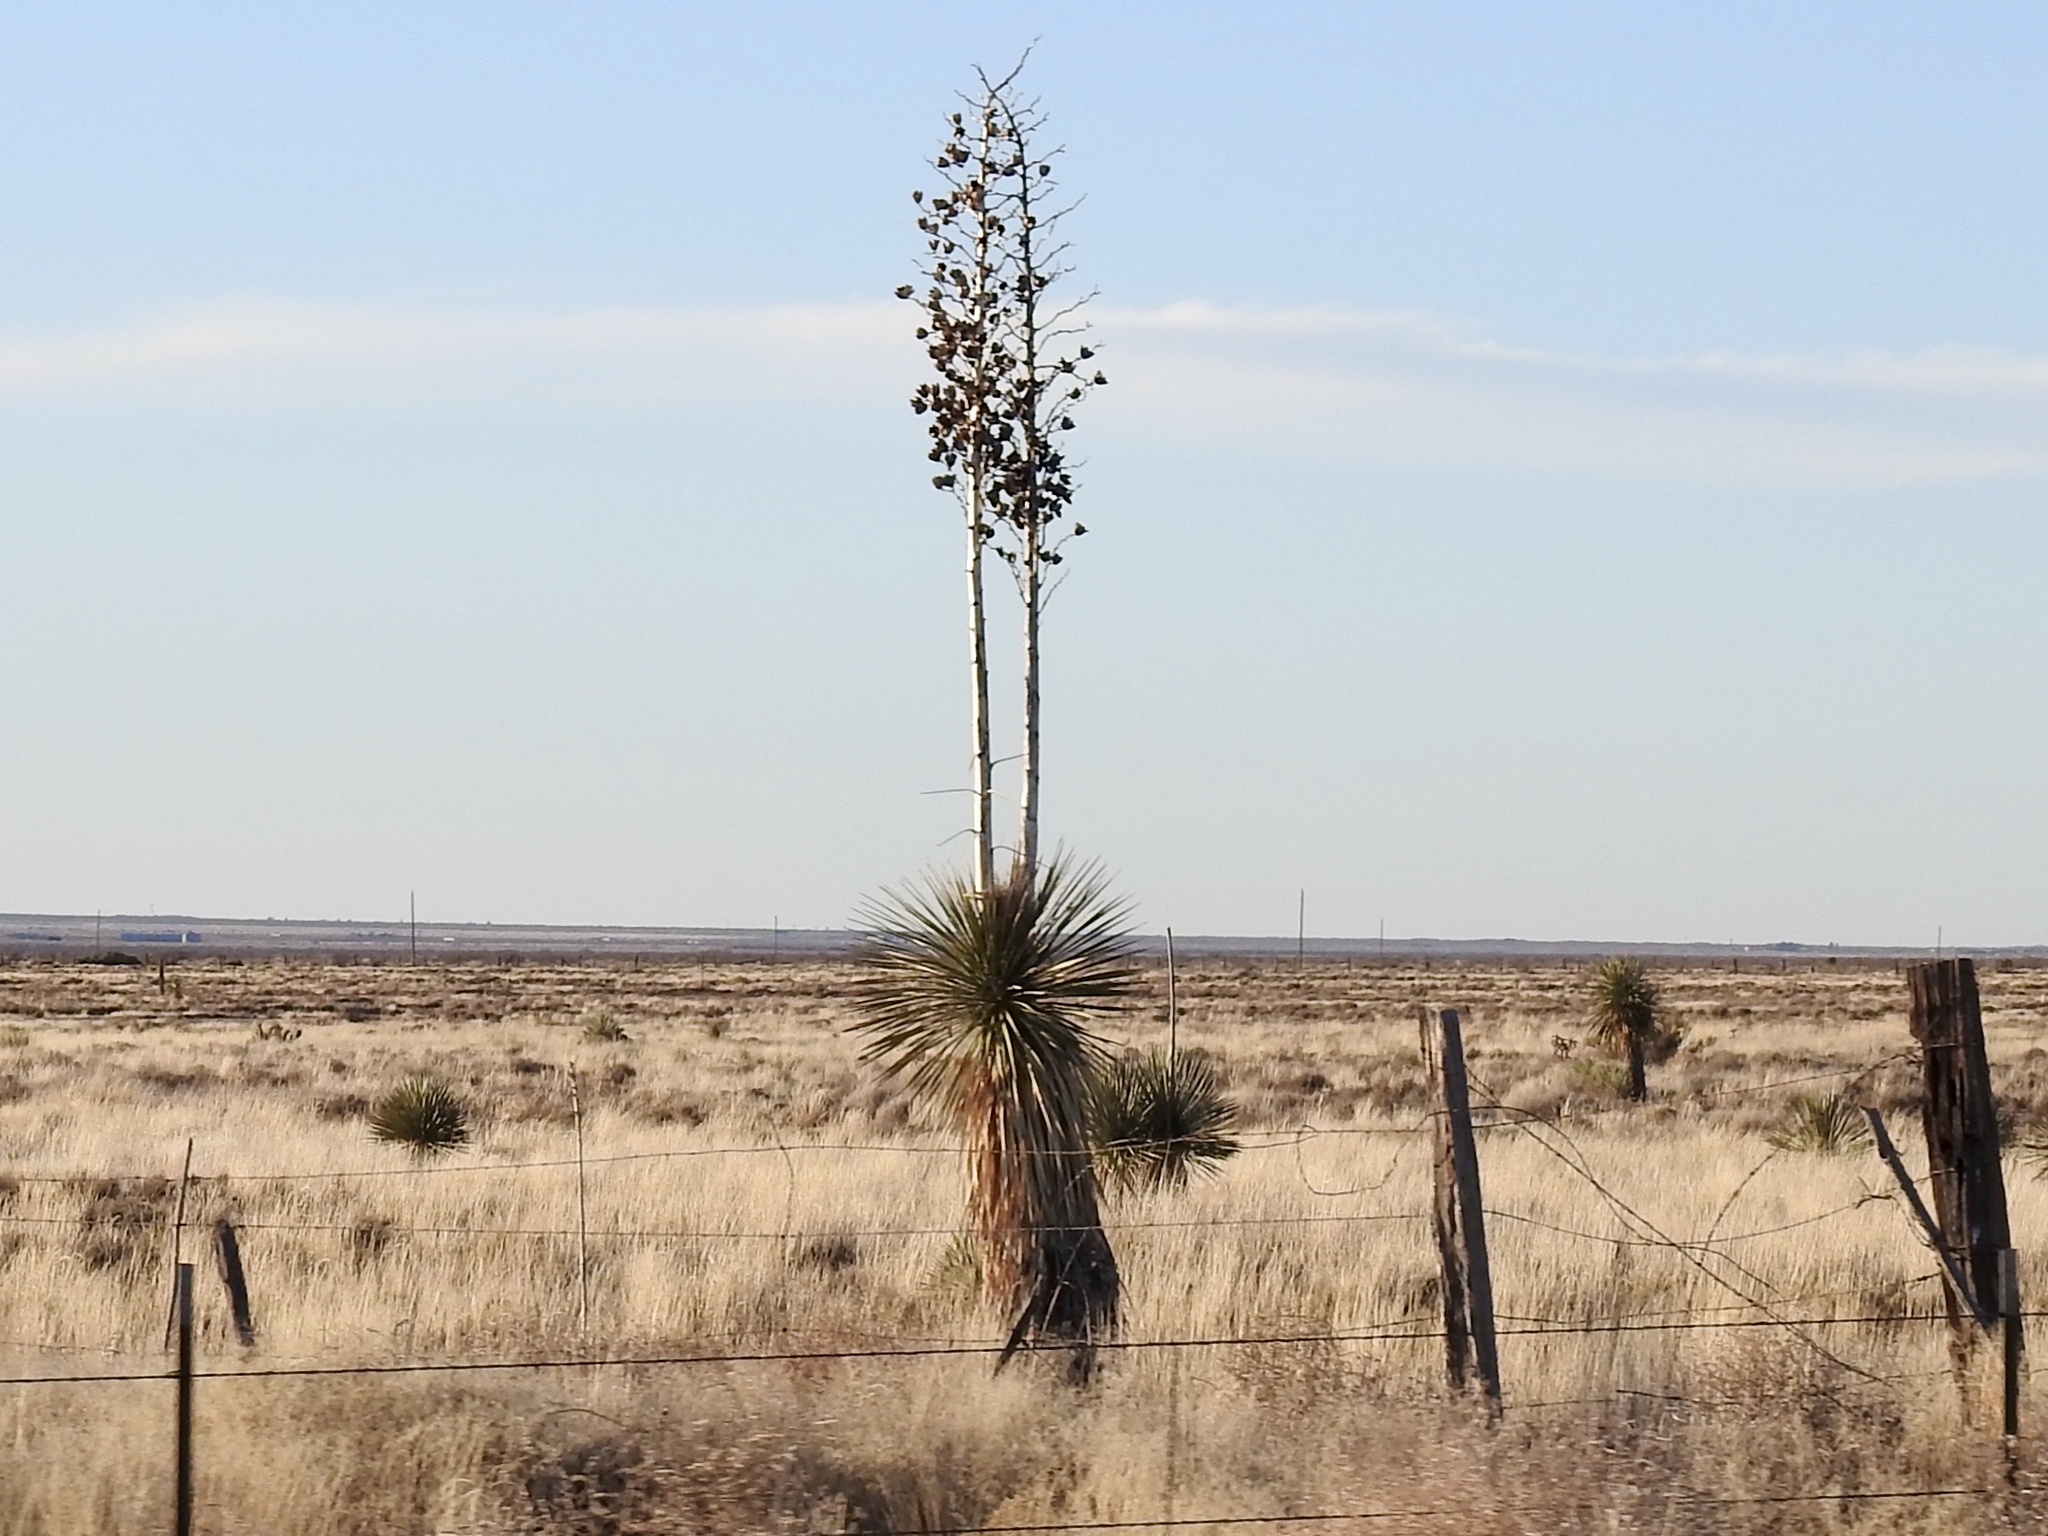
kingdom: Plantae
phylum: Tracheophyta
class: Liliopsida
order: Asparagales
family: Asparagaceae
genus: Yucca
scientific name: Yucca elata
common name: Palmella
